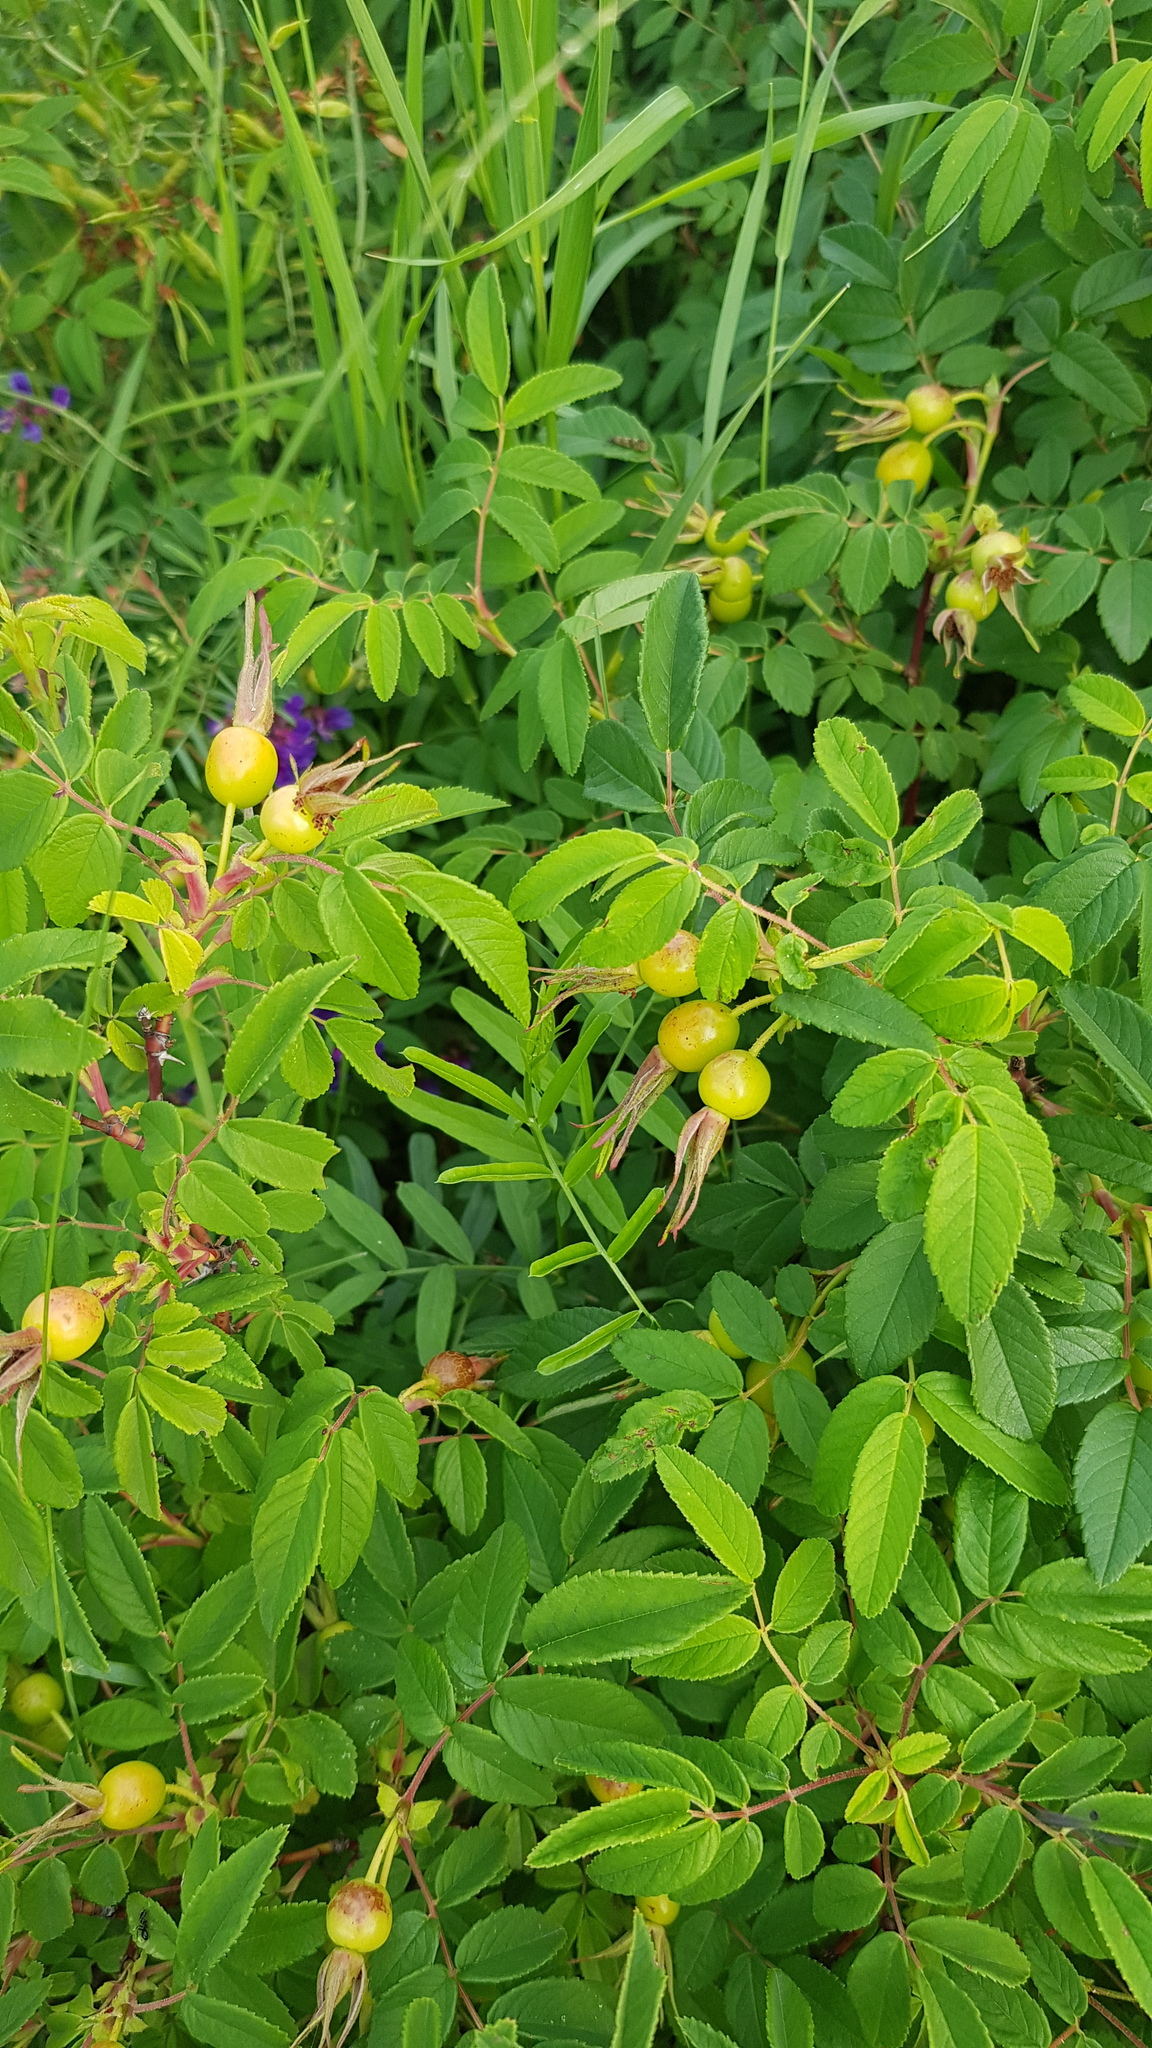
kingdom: Plantae
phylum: Tracheophyta
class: Magnoliopsida
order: Rosales
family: Rosaceae
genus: Rosa
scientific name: Rosa davurica
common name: Amur rose
